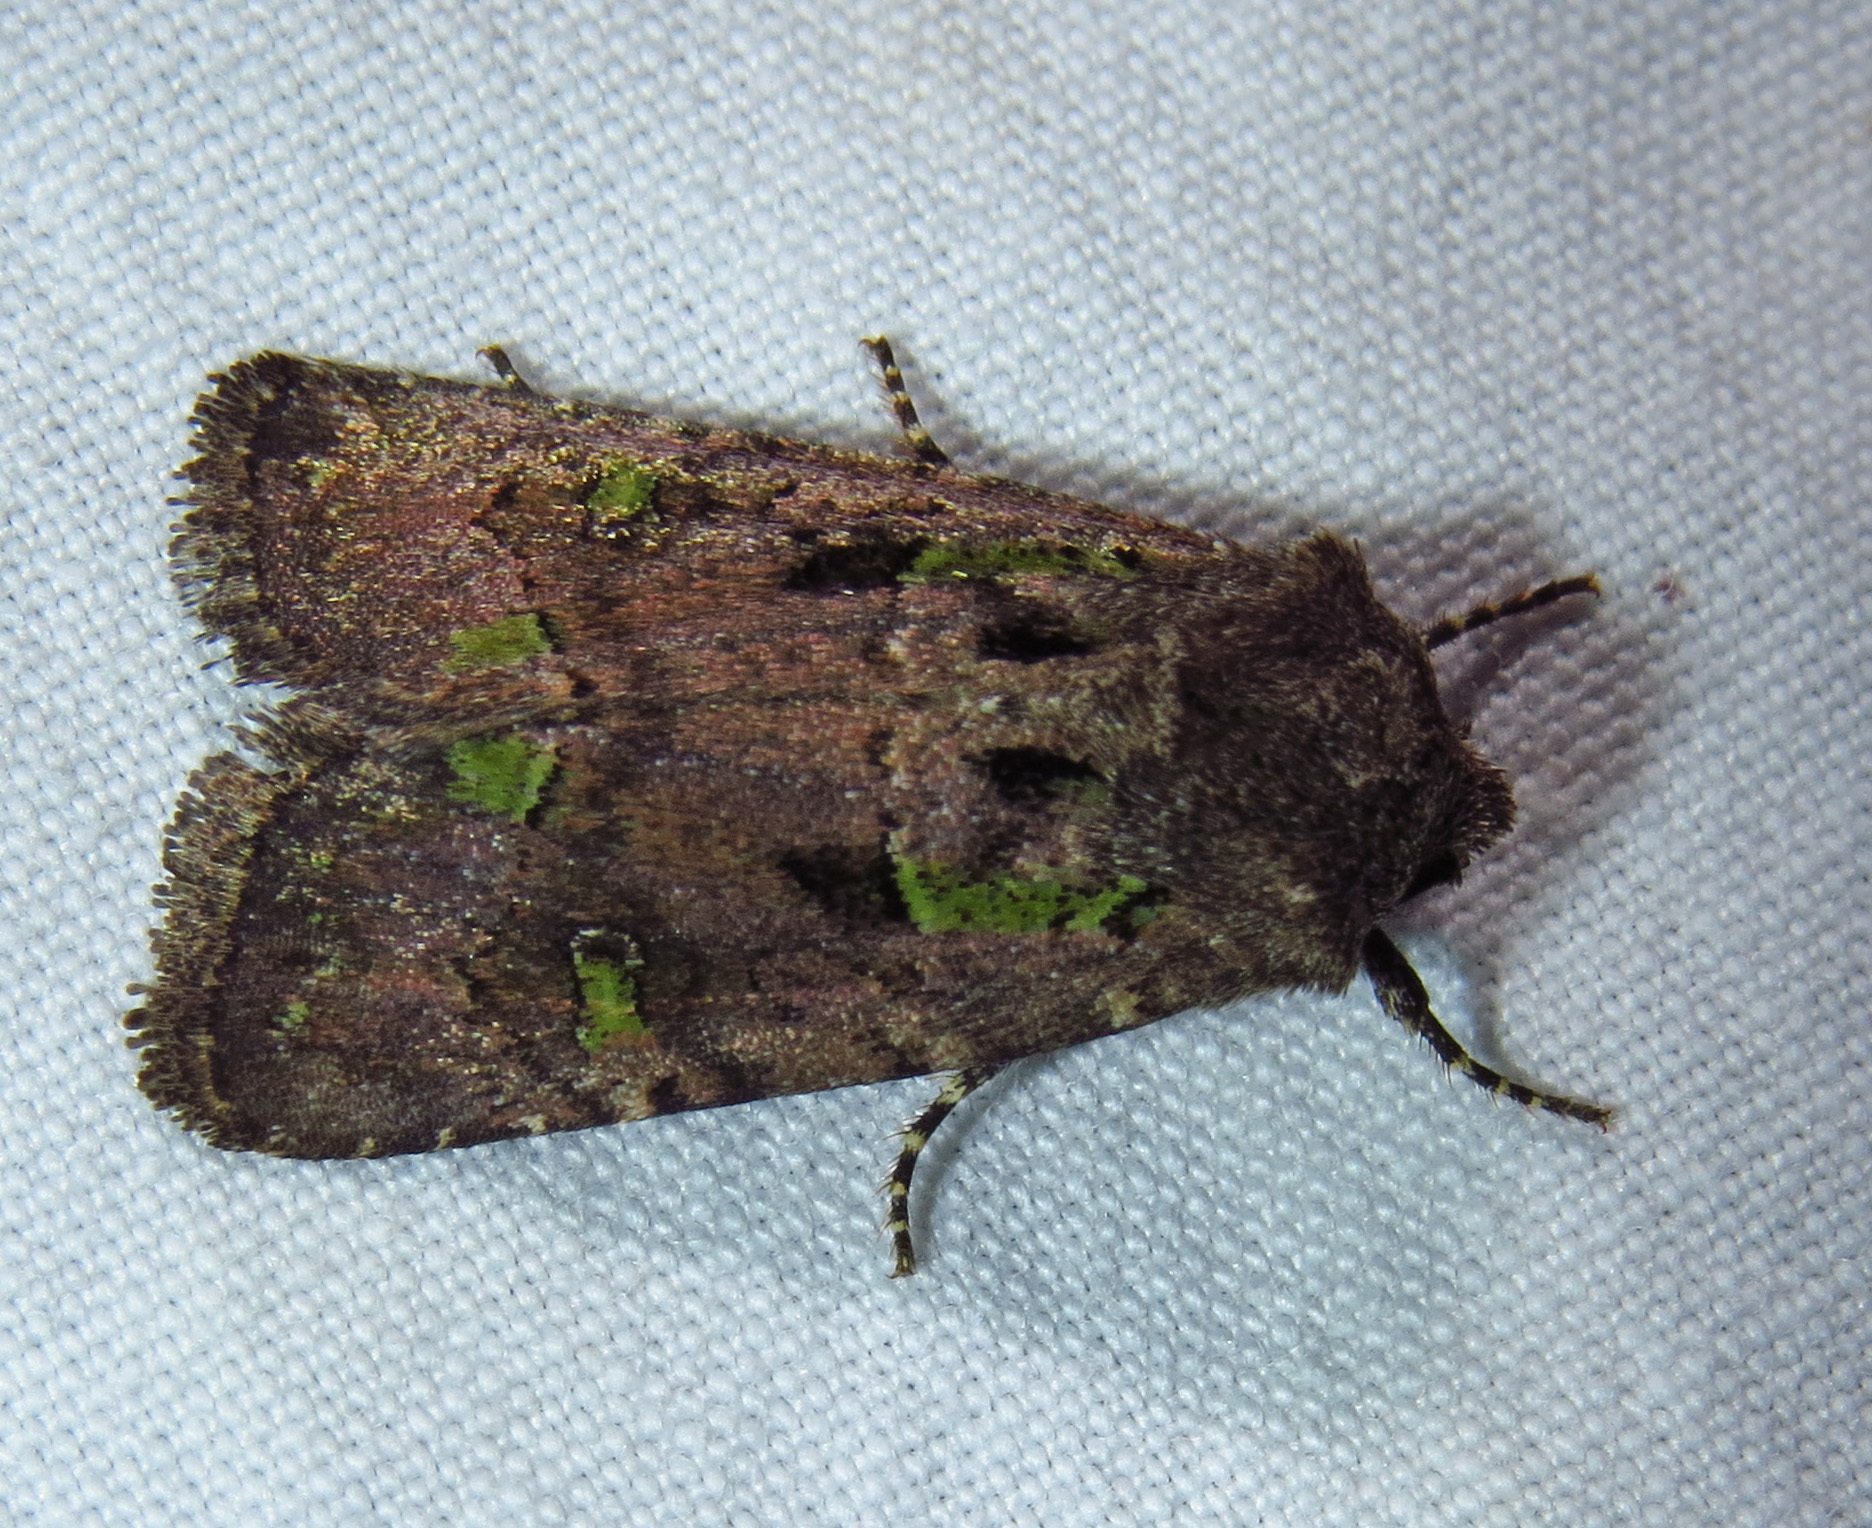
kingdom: Animalia
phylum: Arthropoda
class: Insecta
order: Lepidoptera
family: Noctuidae
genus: Lacinipolia
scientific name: Lacinipolia renigera
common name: Kidney-spotted minor
